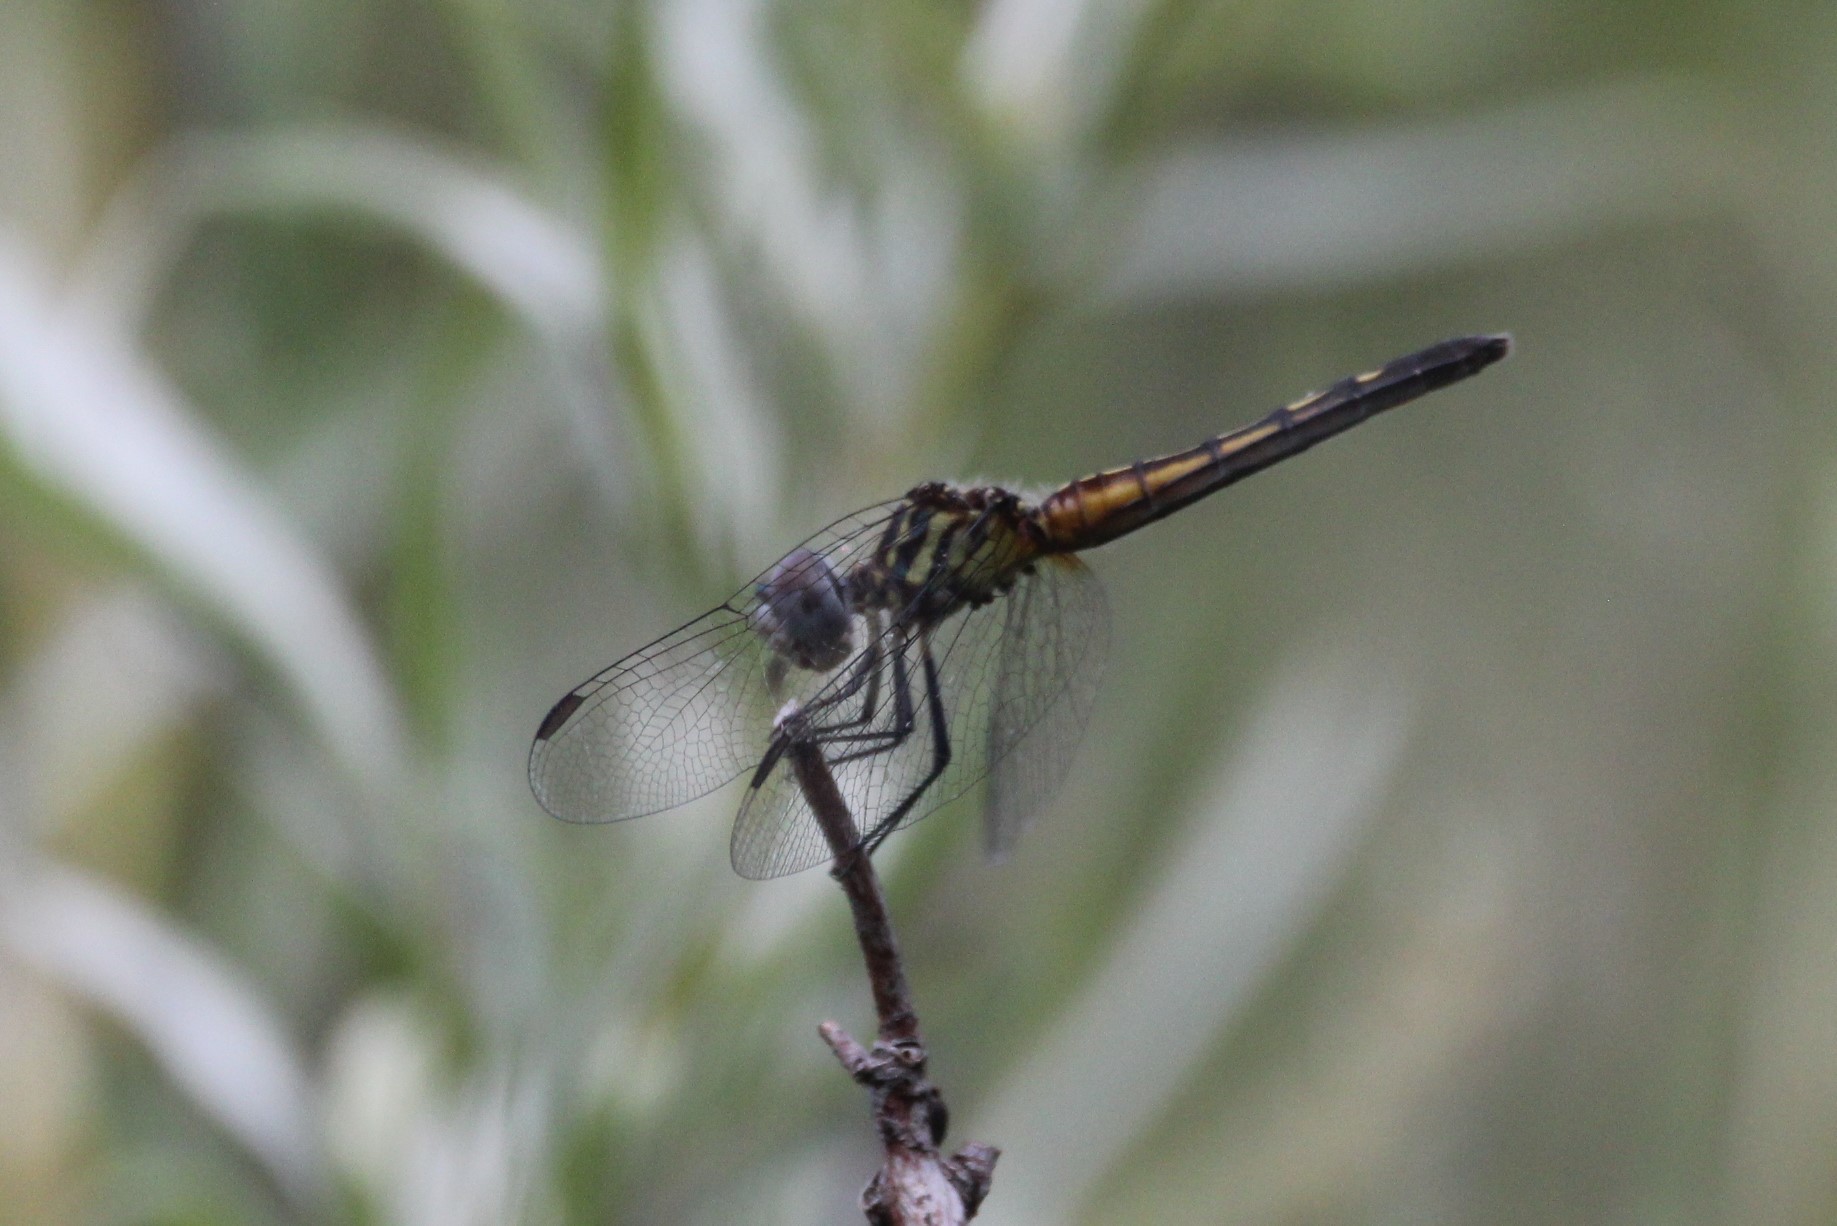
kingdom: Animalia
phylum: Arthropoda
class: Insecta
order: Odonata
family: Libellulidae
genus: Pachydiplax
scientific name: Pachydiplax longipennis
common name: Blue dasher
